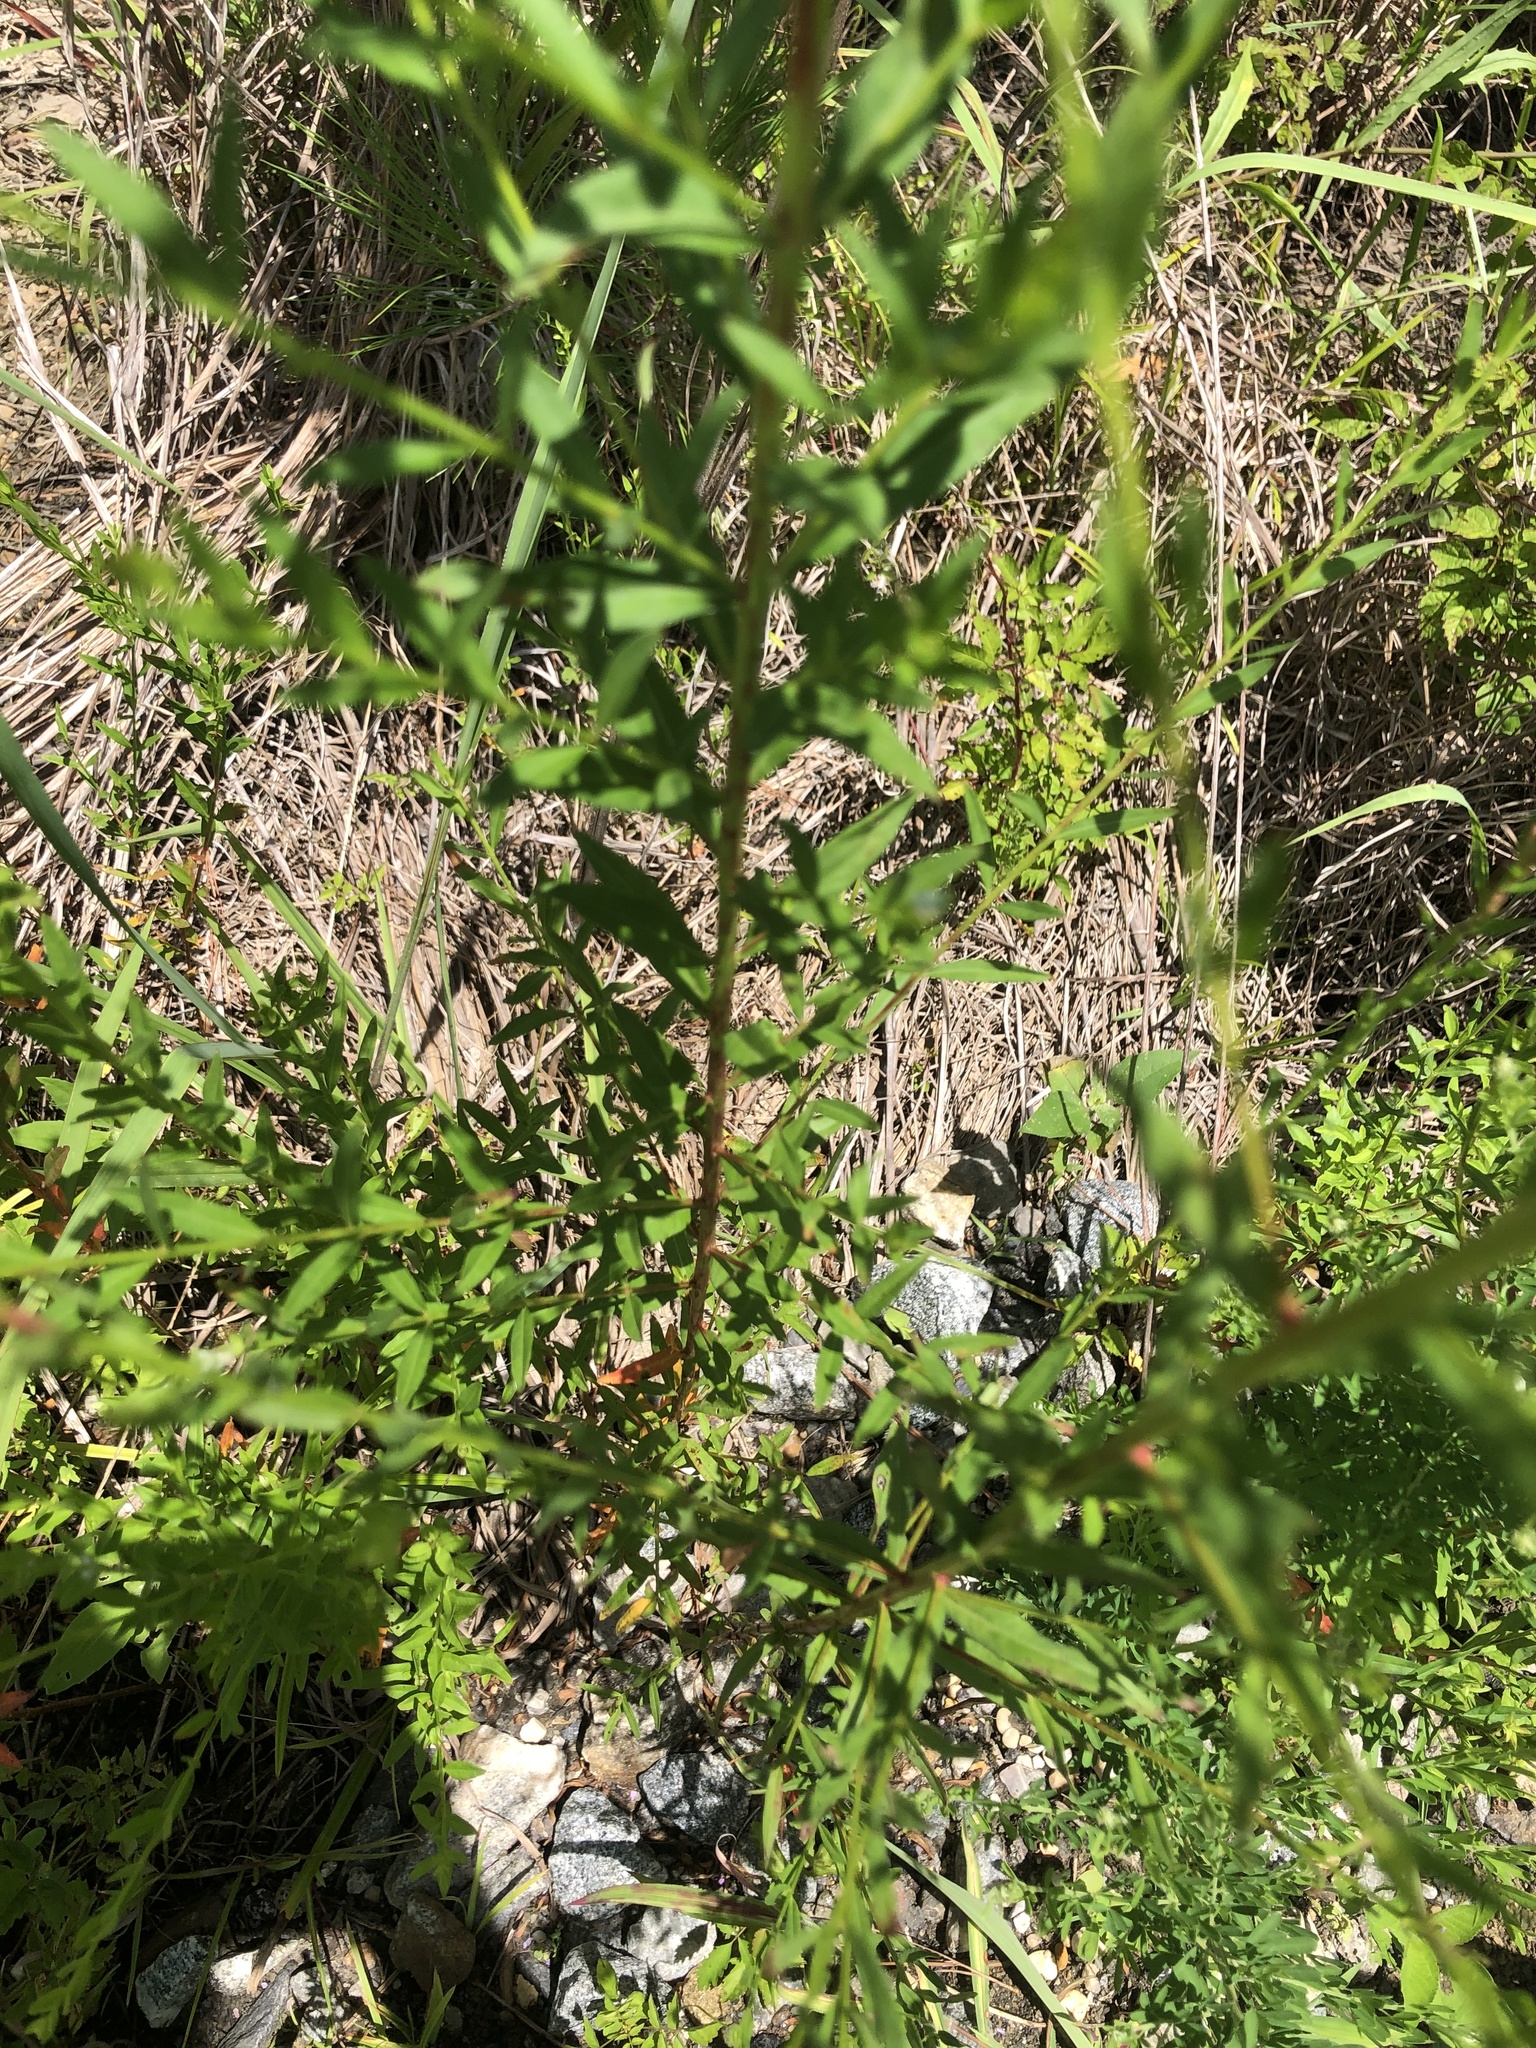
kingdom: Plantae
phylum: Tracheophyta
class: Magnoliopsida
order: Myrtales
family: Lythraceae
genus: Lythrum
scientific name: Lythrum alatum
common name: Winged loosestrife
